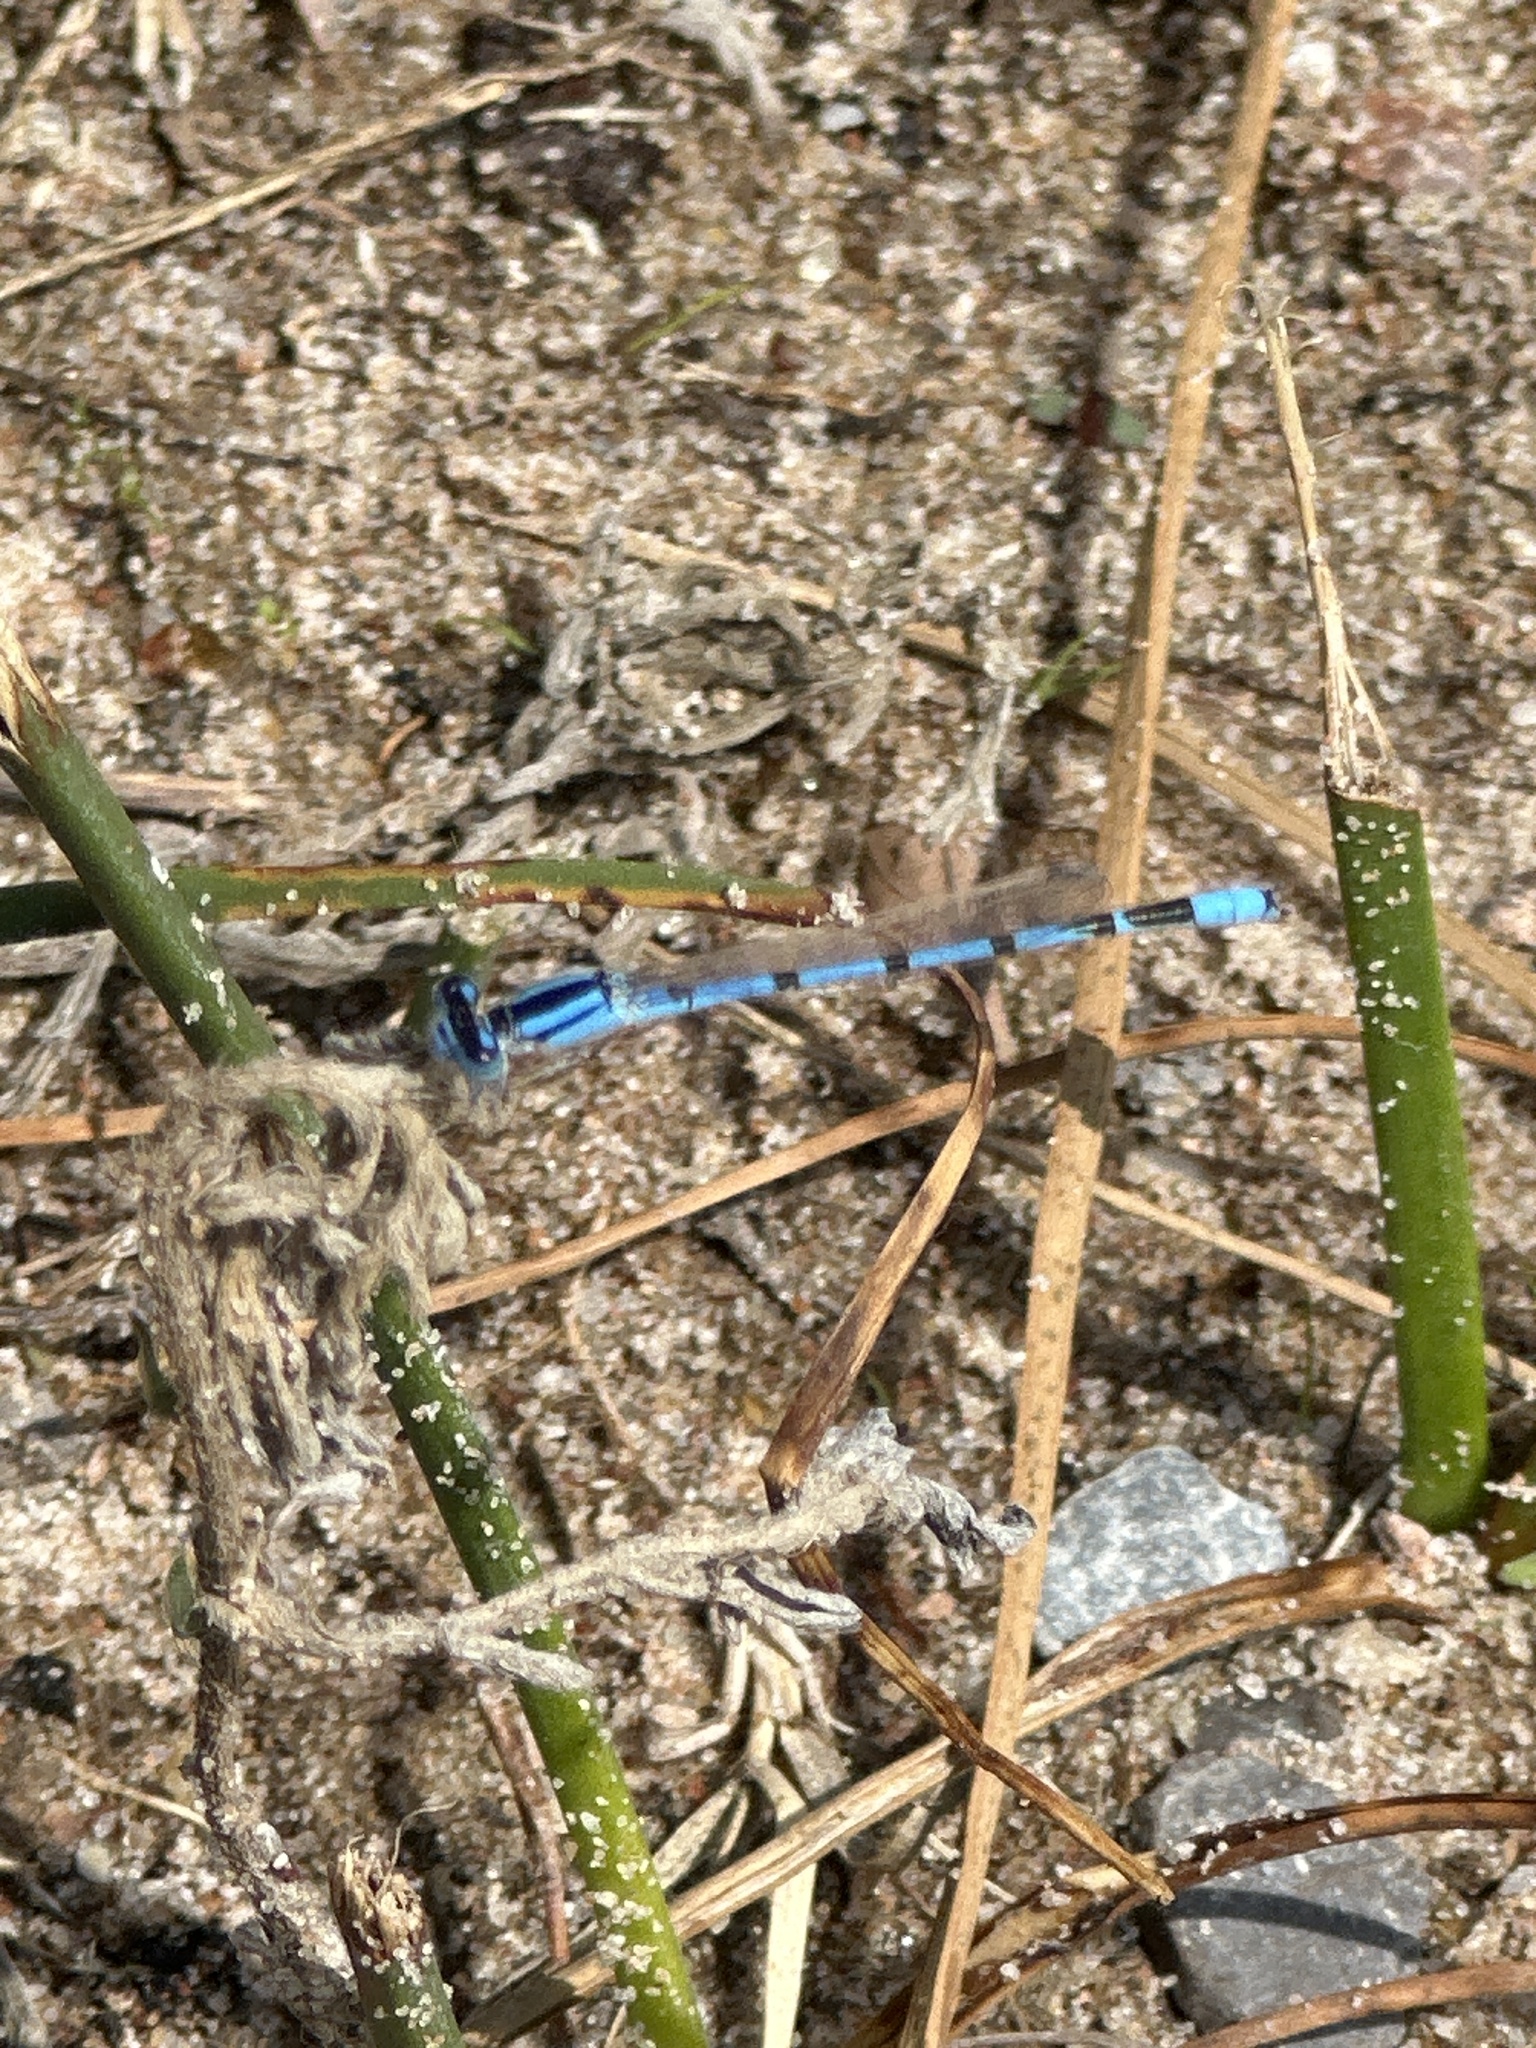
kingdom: Animalia
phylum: Arthropoda
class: Insecta
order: Odonata
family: Coenagrionidae
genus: Enallagma
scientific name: Enallagma civile
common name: Damselfly
